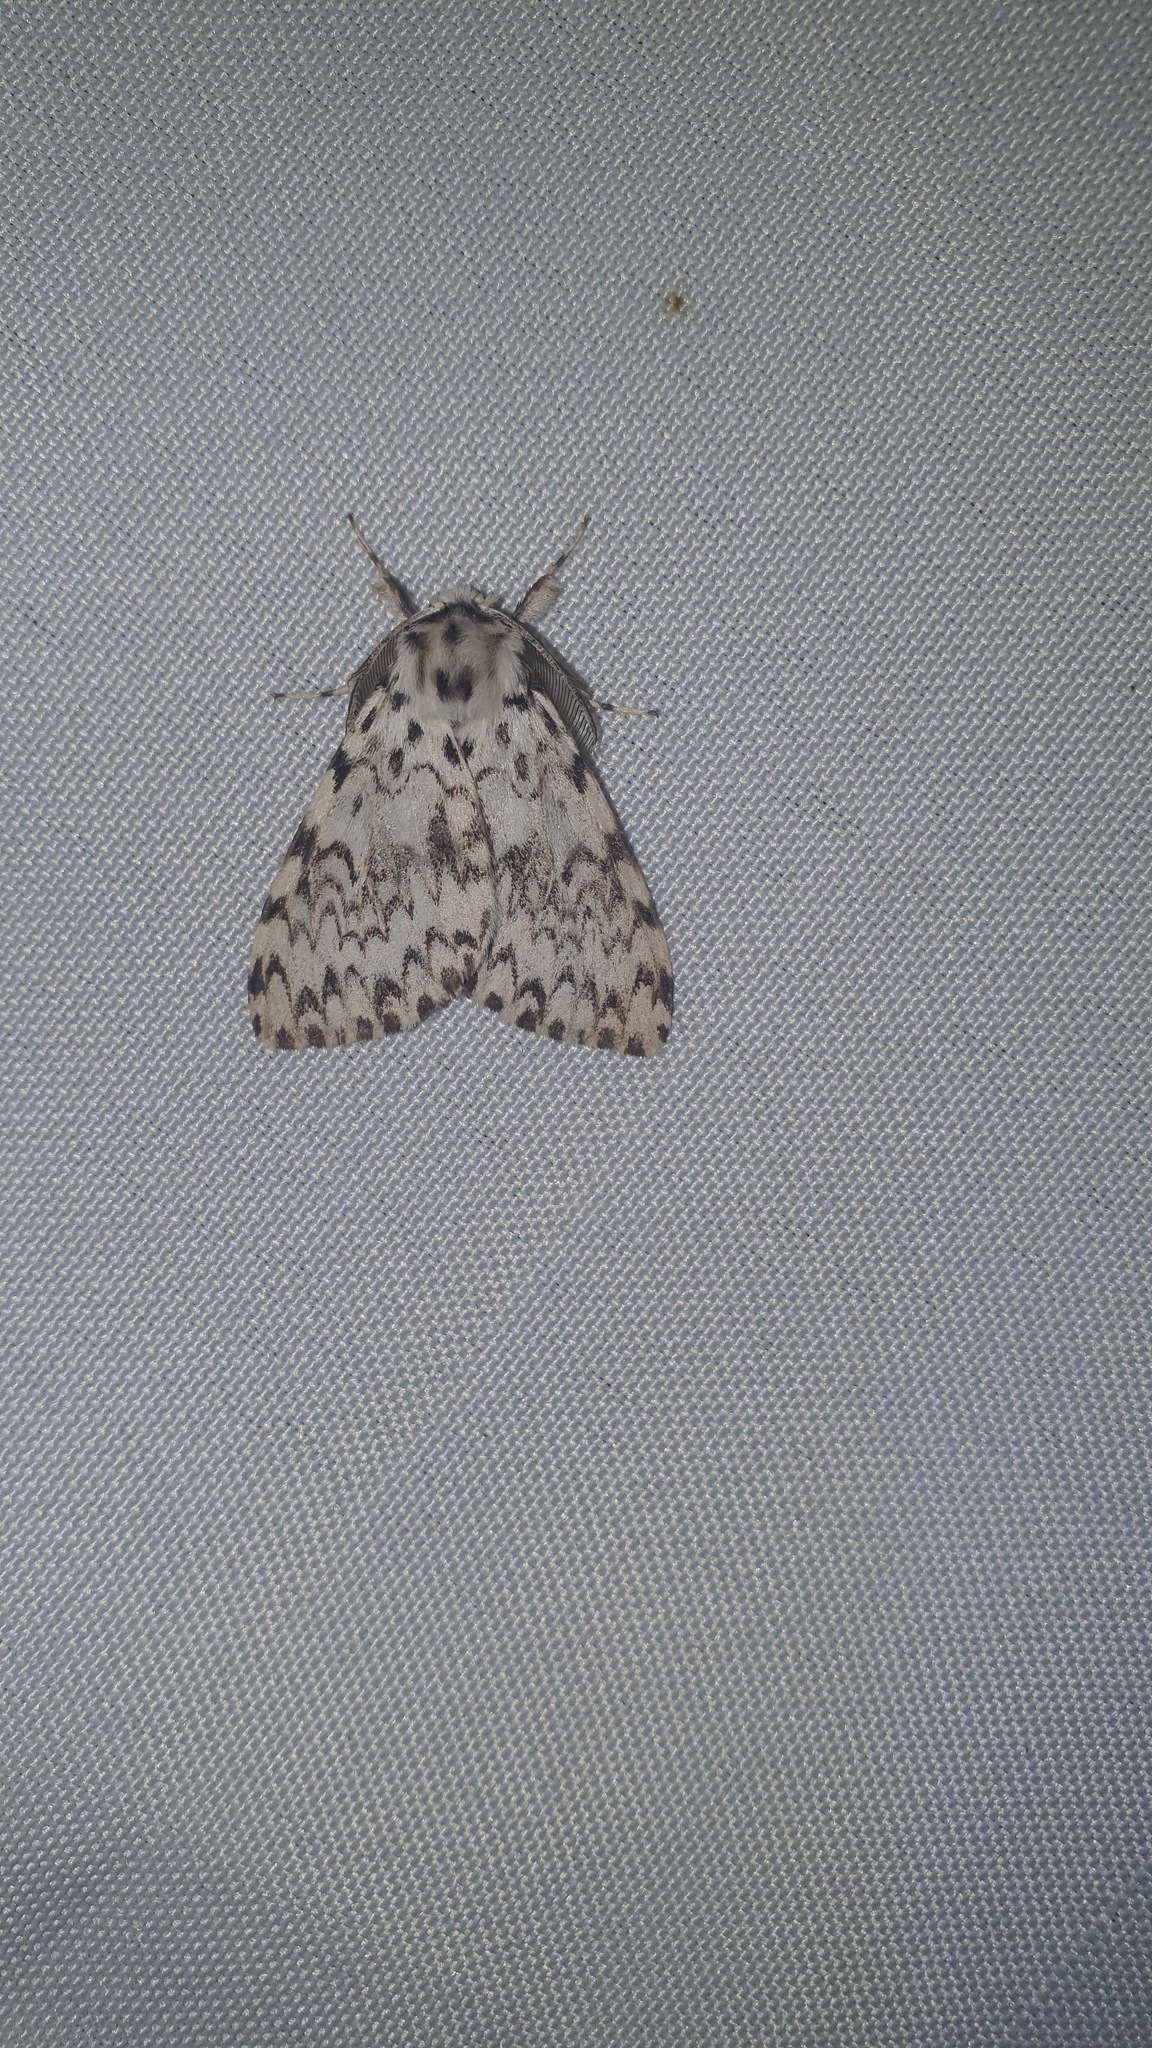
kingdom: Animalia
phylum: Arthropoda
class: Insecta
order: Lepidoptera
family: Erebidae
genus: Lymantria
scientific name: Lymantria monacha
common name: Black arches
